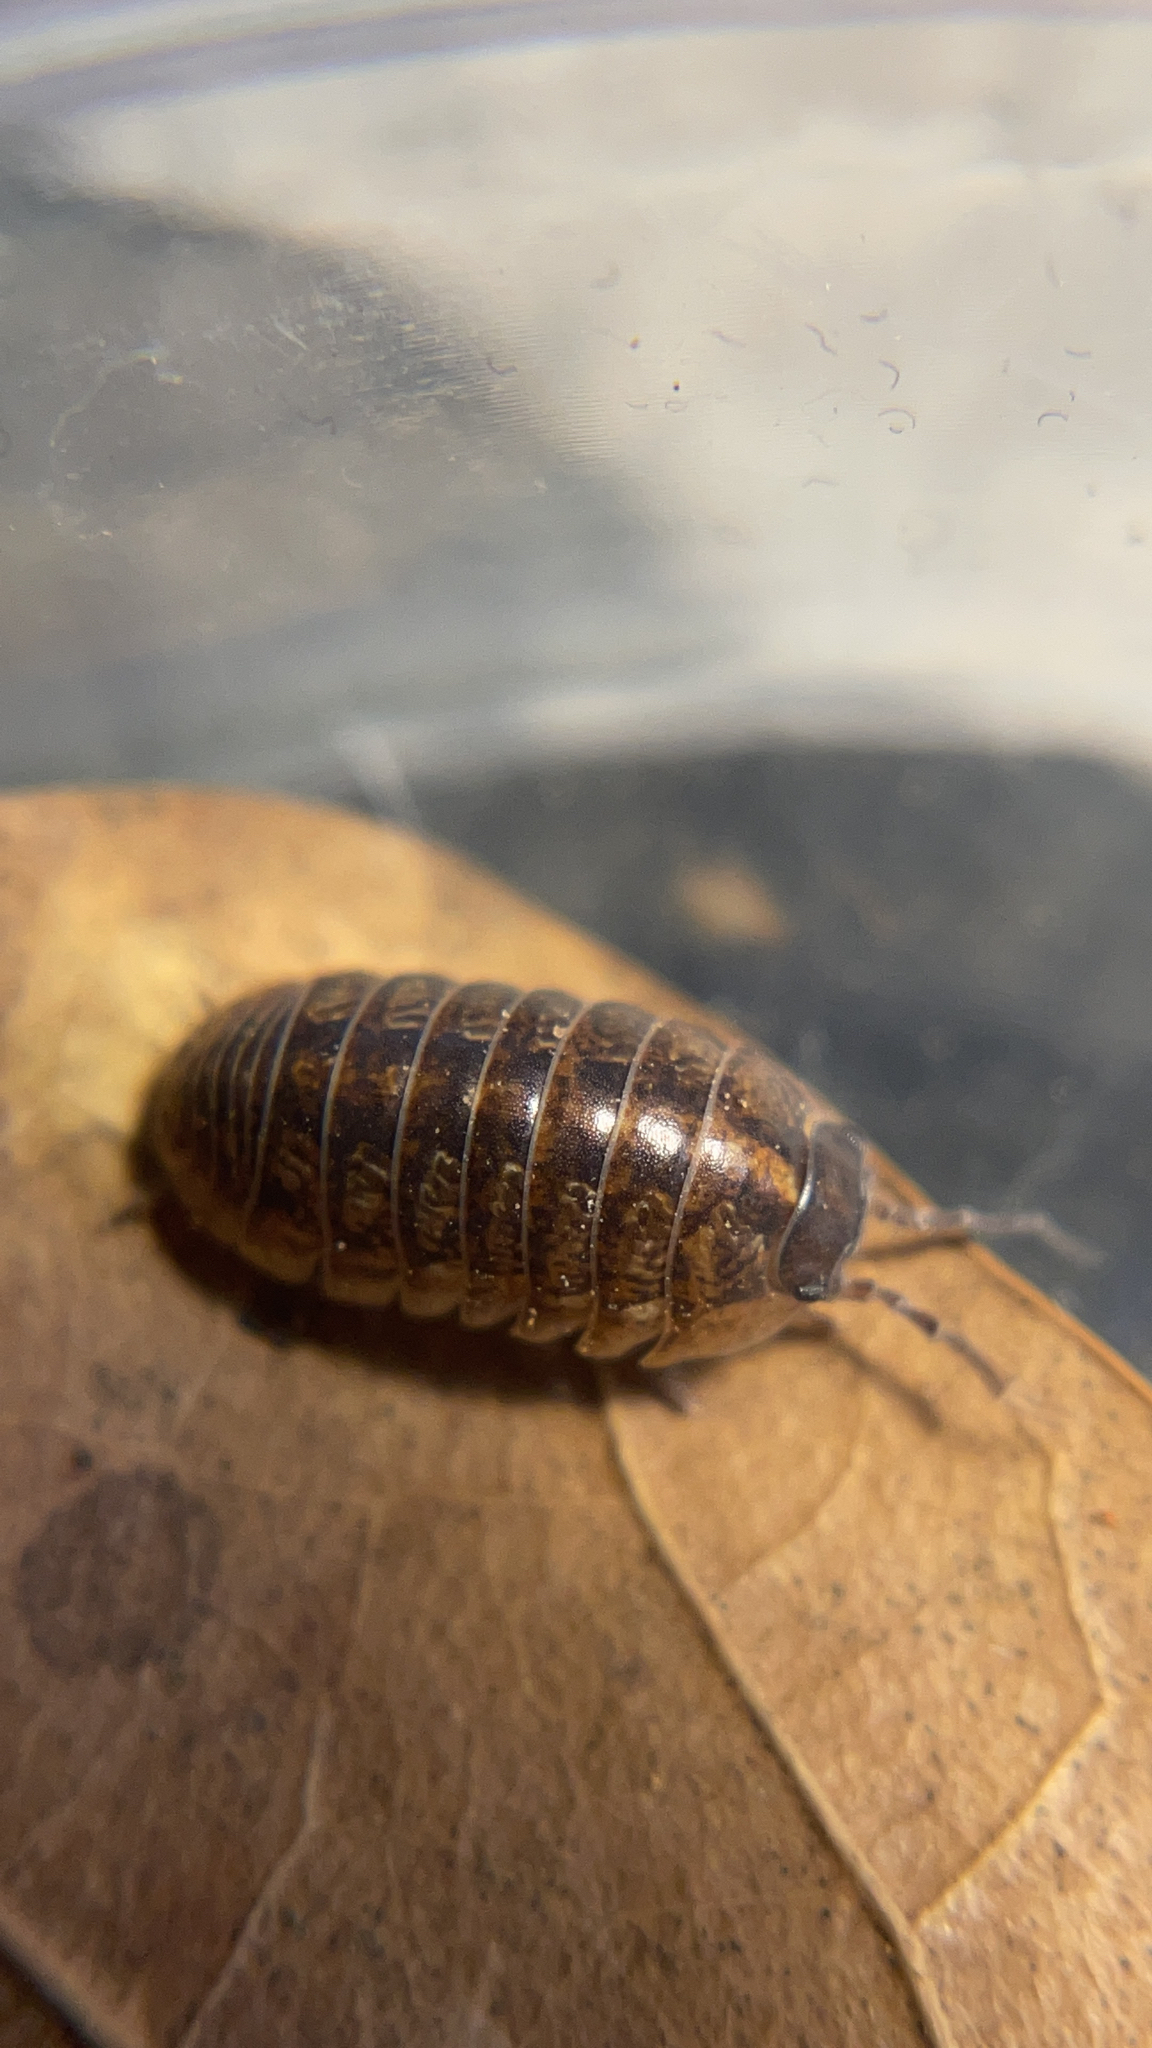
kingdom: Animalia
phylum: Arthropoda
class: Malacostraca
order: Isopoda
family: Armadillidiidae
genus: Armadillidium
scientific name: Armadillidium vulgare
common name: Common pill woodlouse
